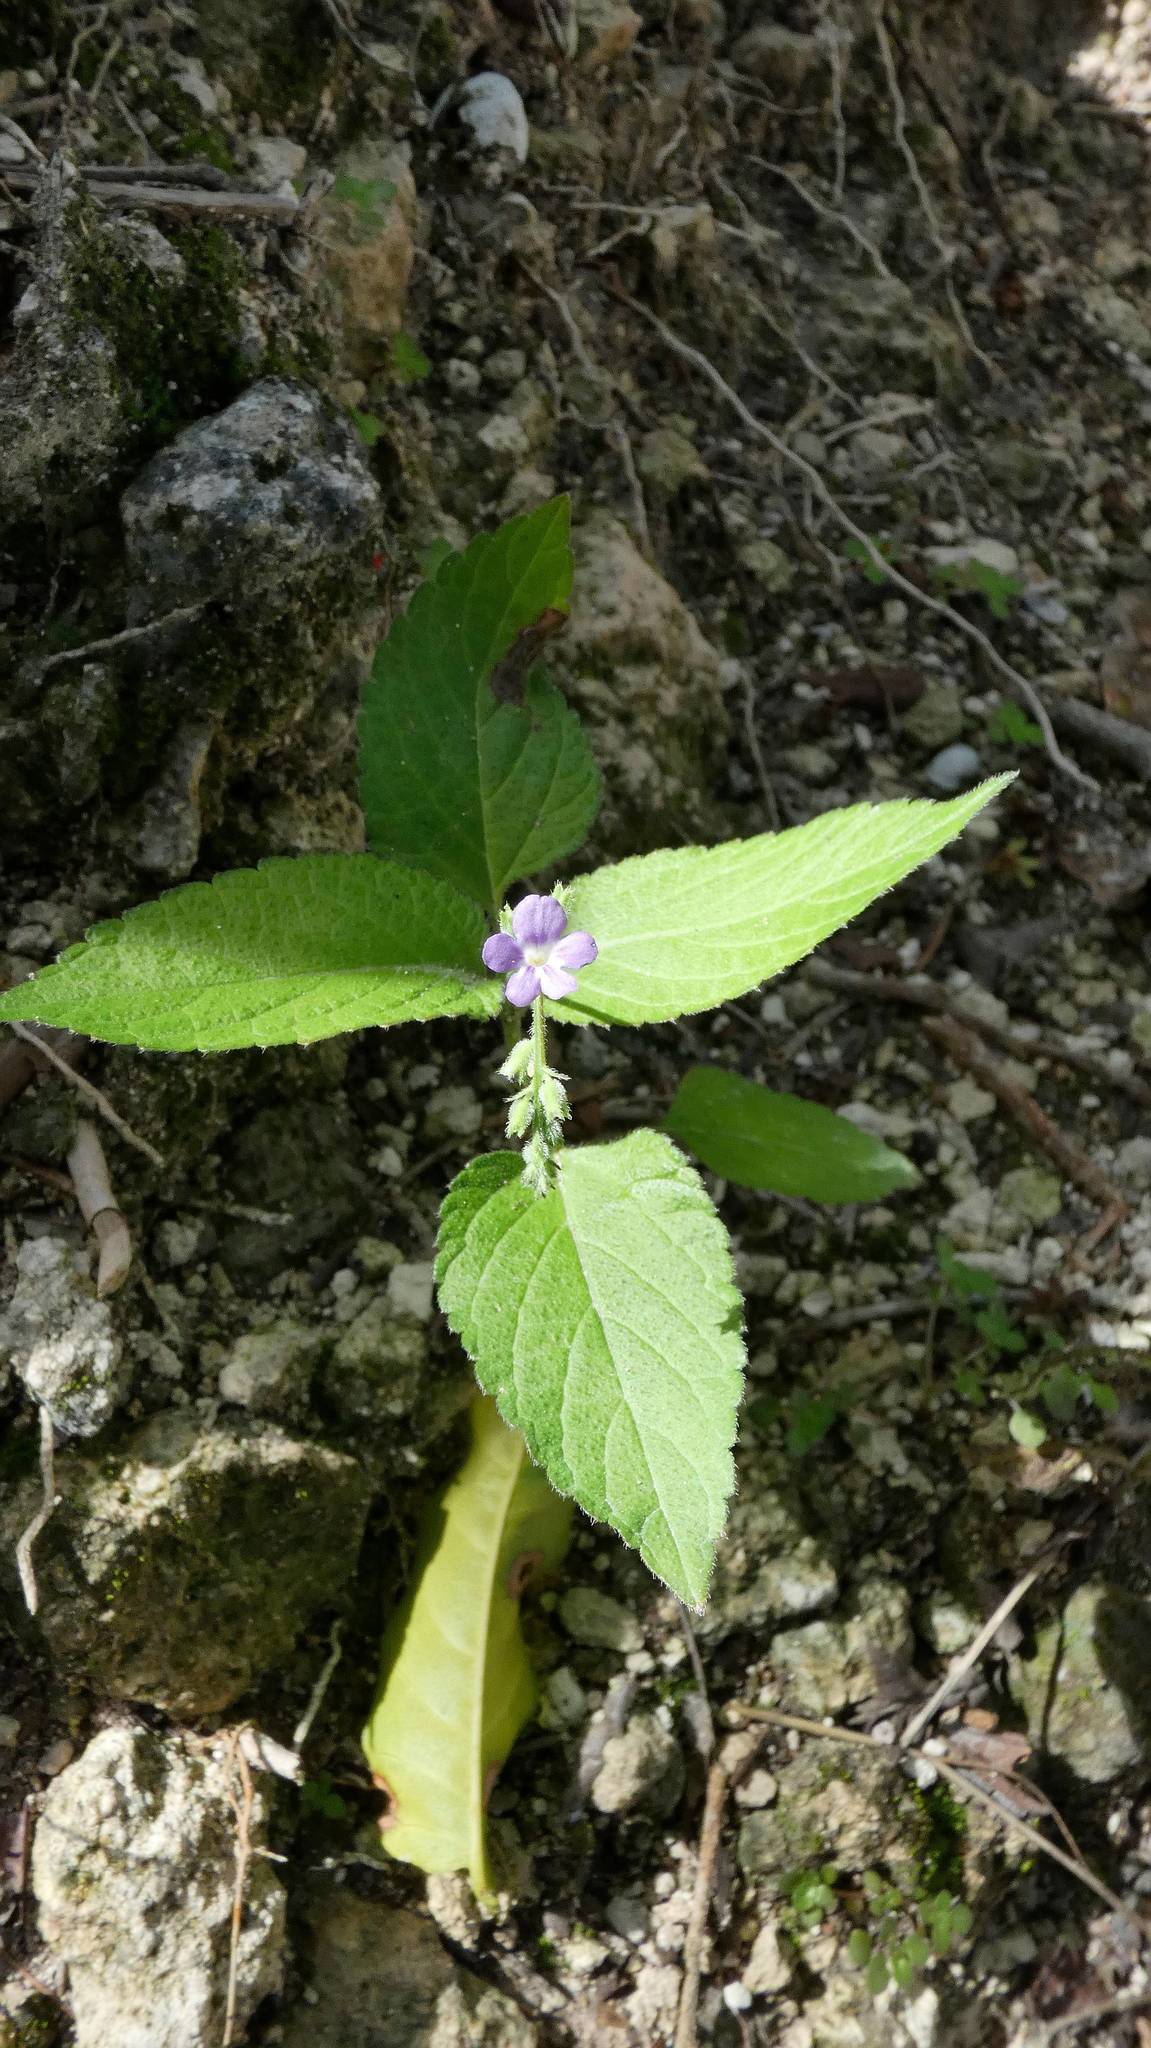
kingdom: Plantae
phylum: Tracheophyta
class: Magnoliopsida
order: Lamiales
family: Verbenaceae
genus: Priva
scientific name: Priva lappulacea
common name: Fasten-'pon-coat
